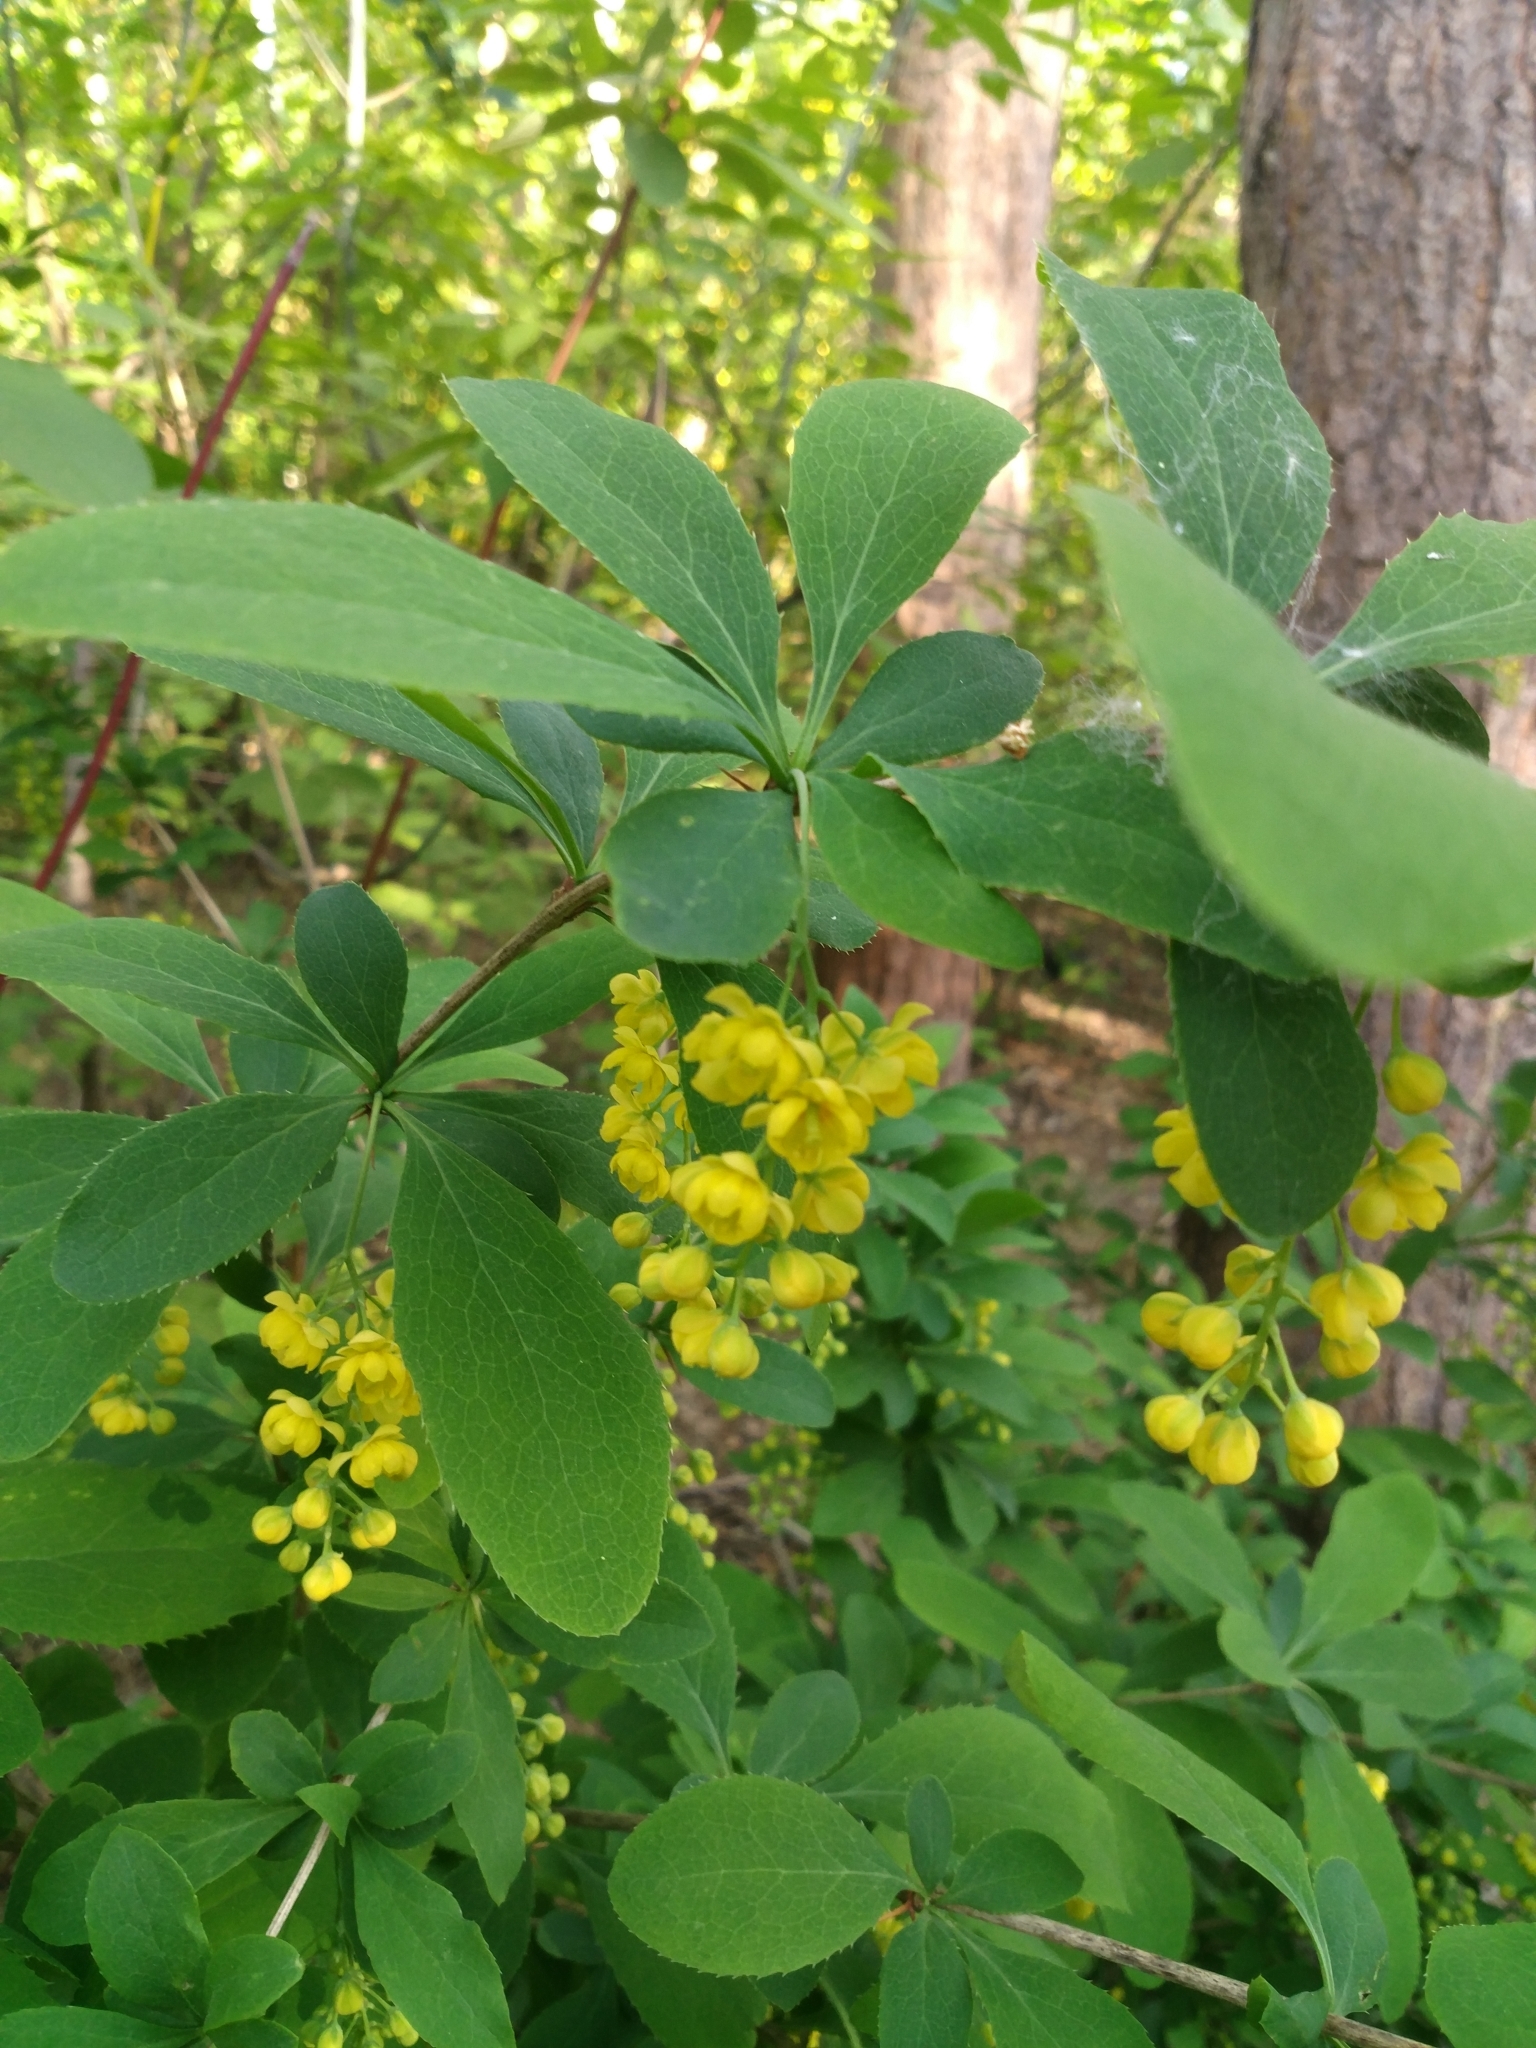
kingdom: Plantae
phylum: Tracheophyta
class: Magnoliopsida
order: Ranunculales
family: Berberidaceae
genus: Berberis
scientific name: Berberis vulgaris
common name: Barberry
